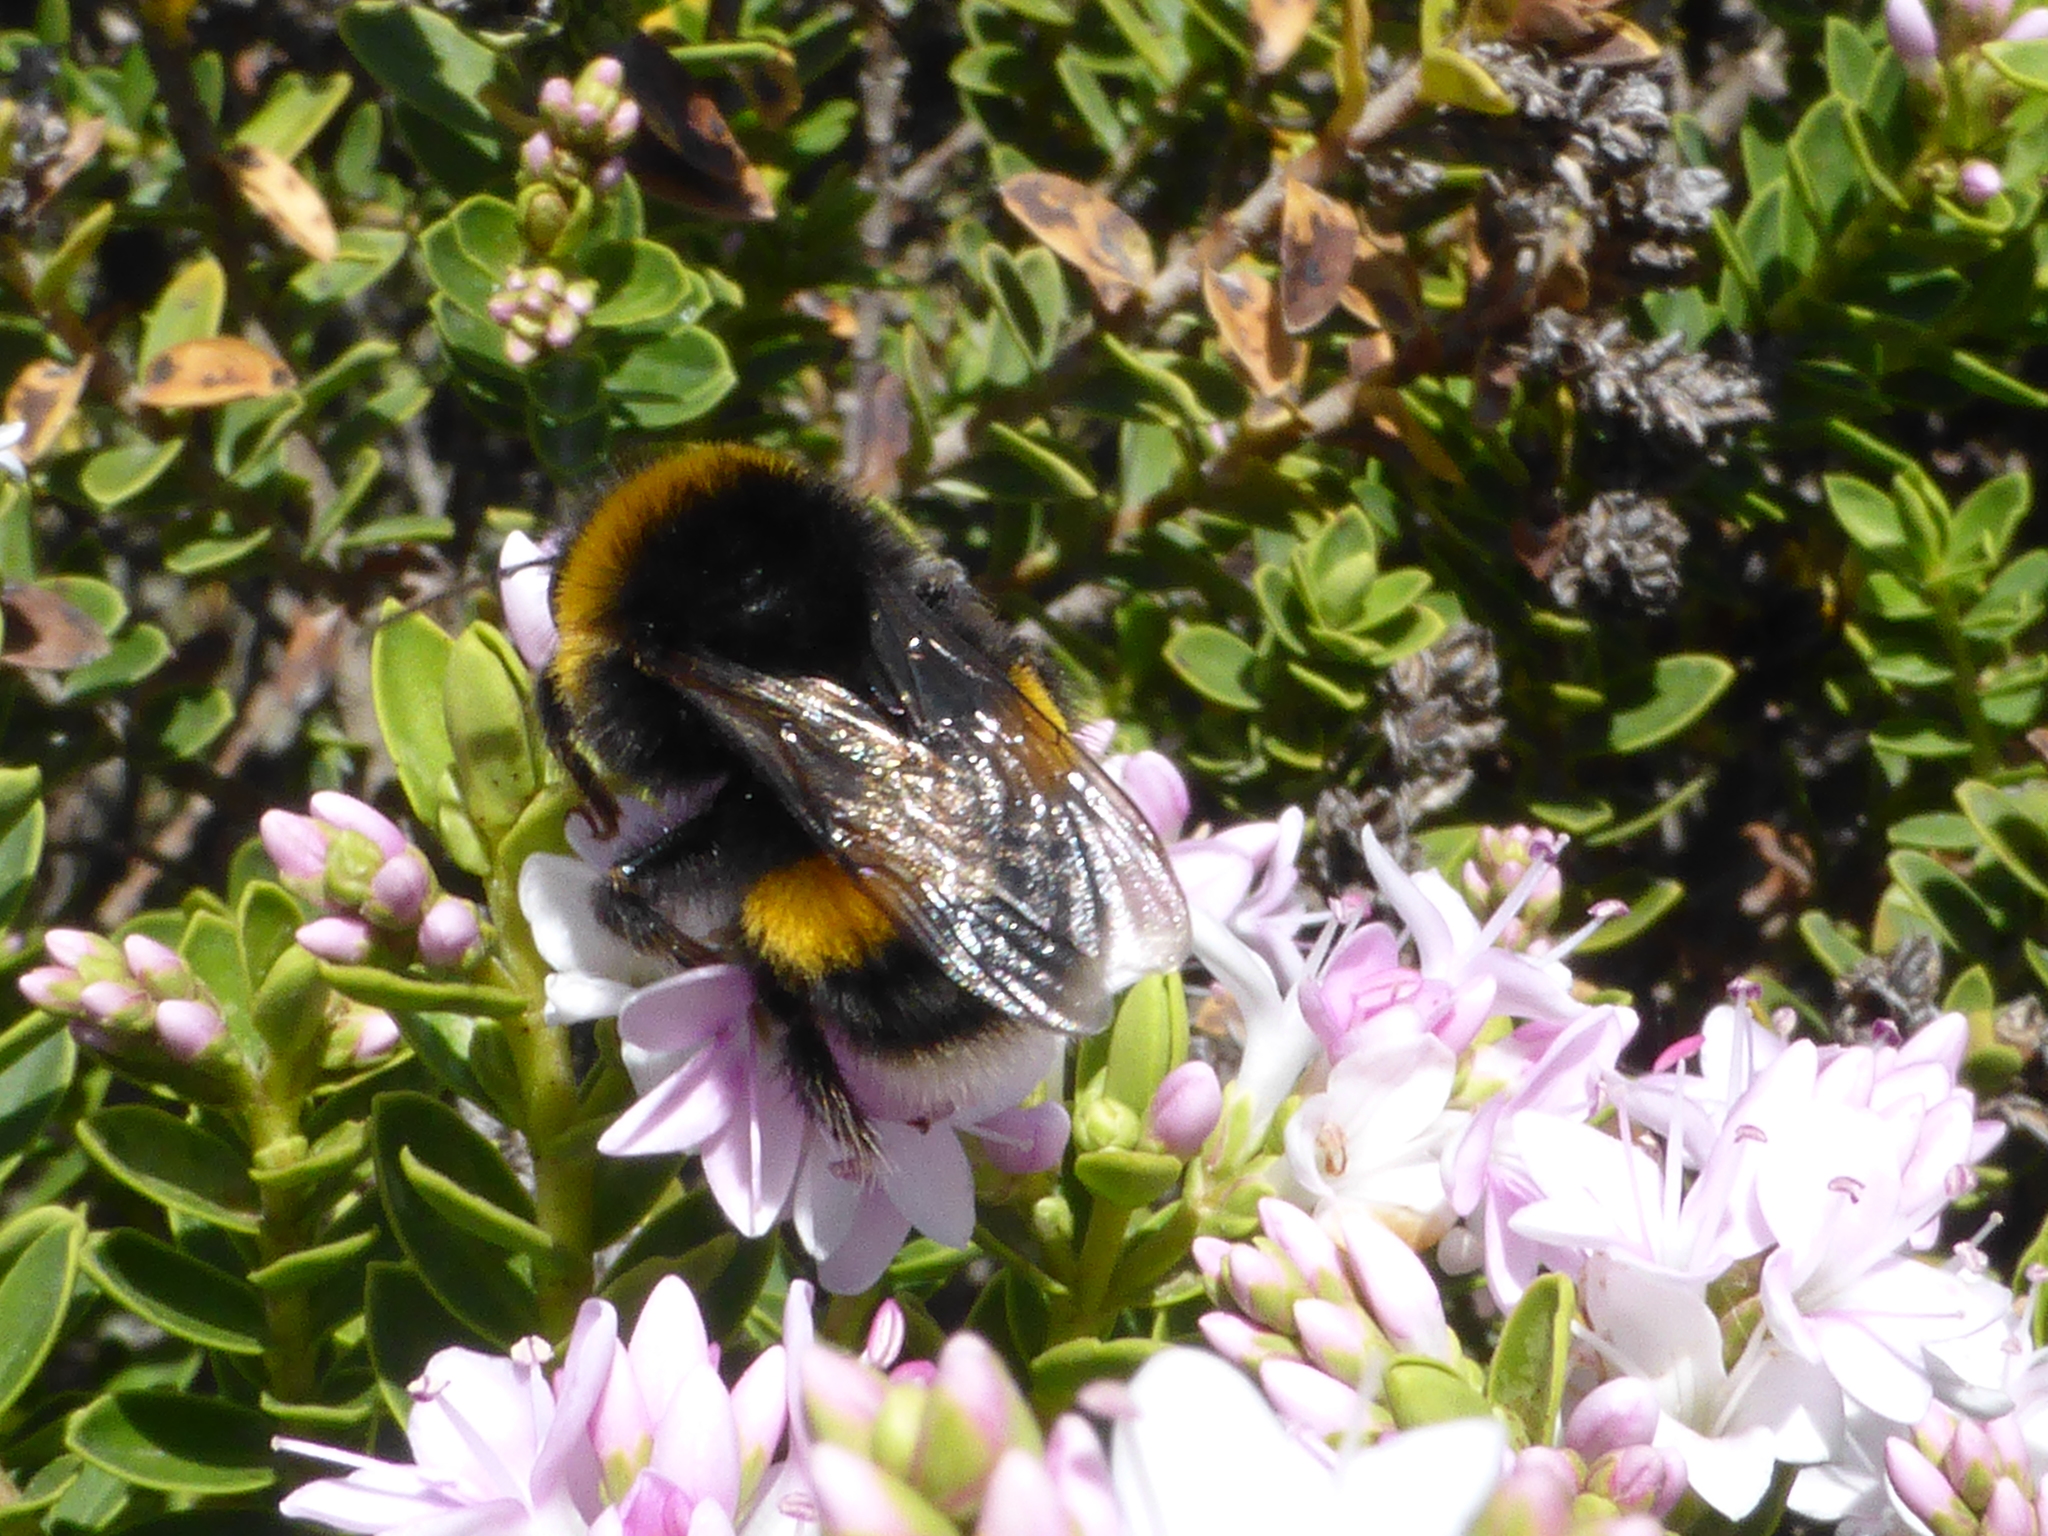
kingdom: Animalia
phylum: Arthropoda
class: Insecta
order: Hymenoptera
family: Apidae
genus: Bombus
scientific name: Bombus terrestris
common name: Buff-tailed bumblebee
